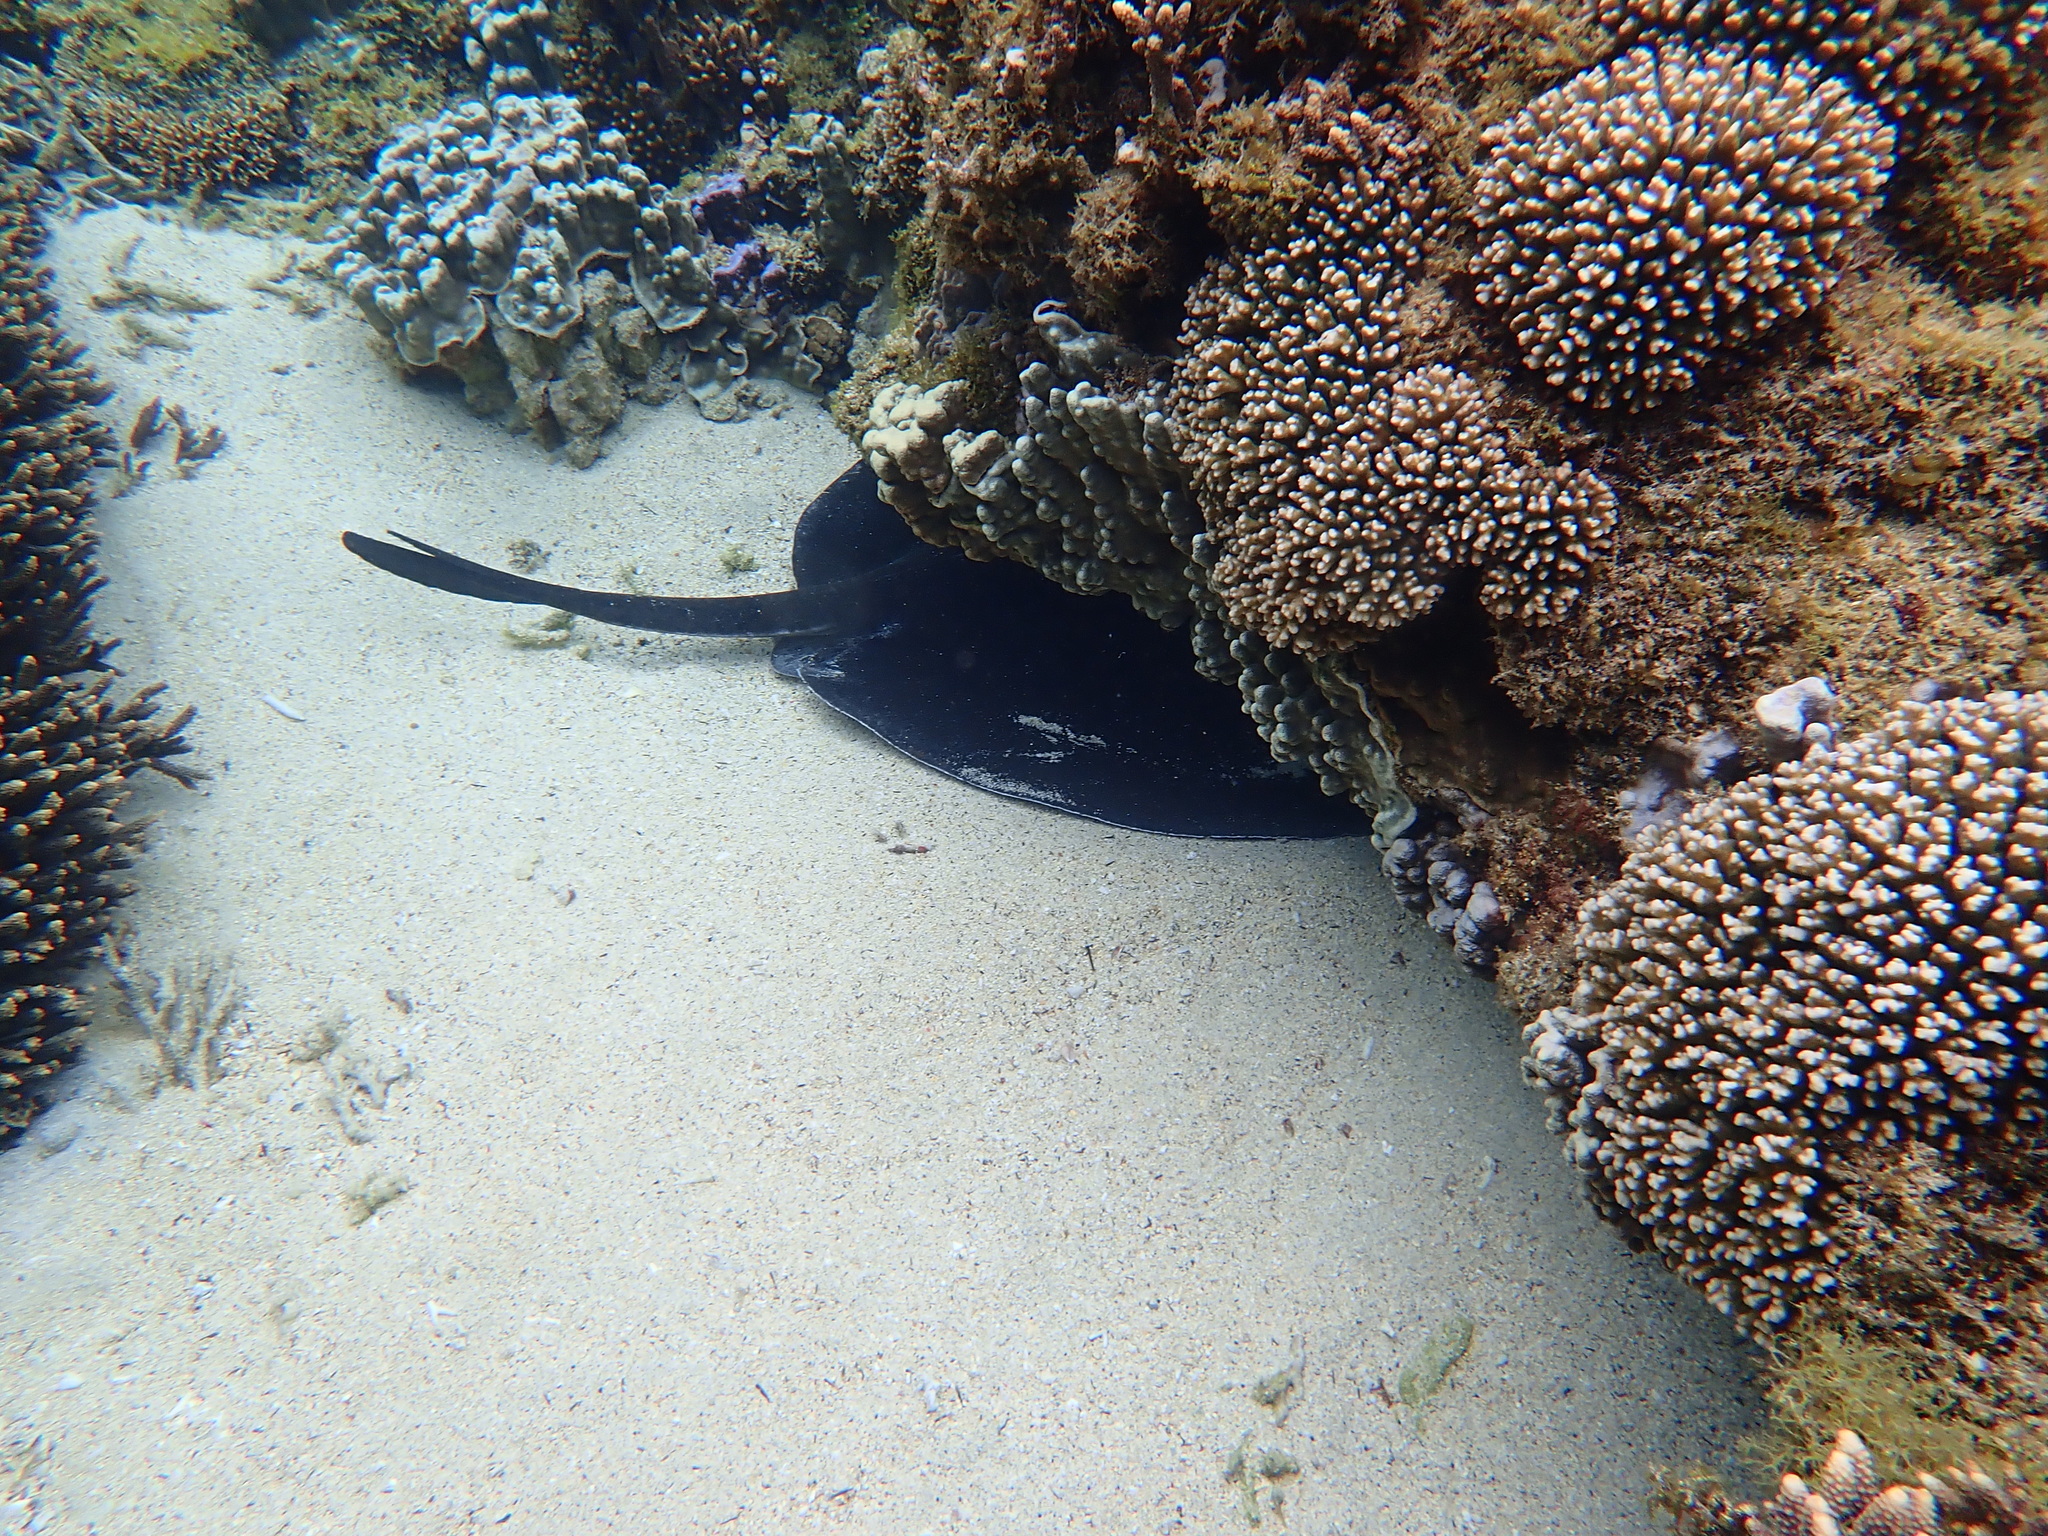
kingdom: Animalia
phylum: Chordata
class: Elasmobranchii
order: Myliobatiformes
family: Dasyatidae
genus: Taeniurops
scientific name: Taeniurops meyeni
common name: Black-blotched stingray
